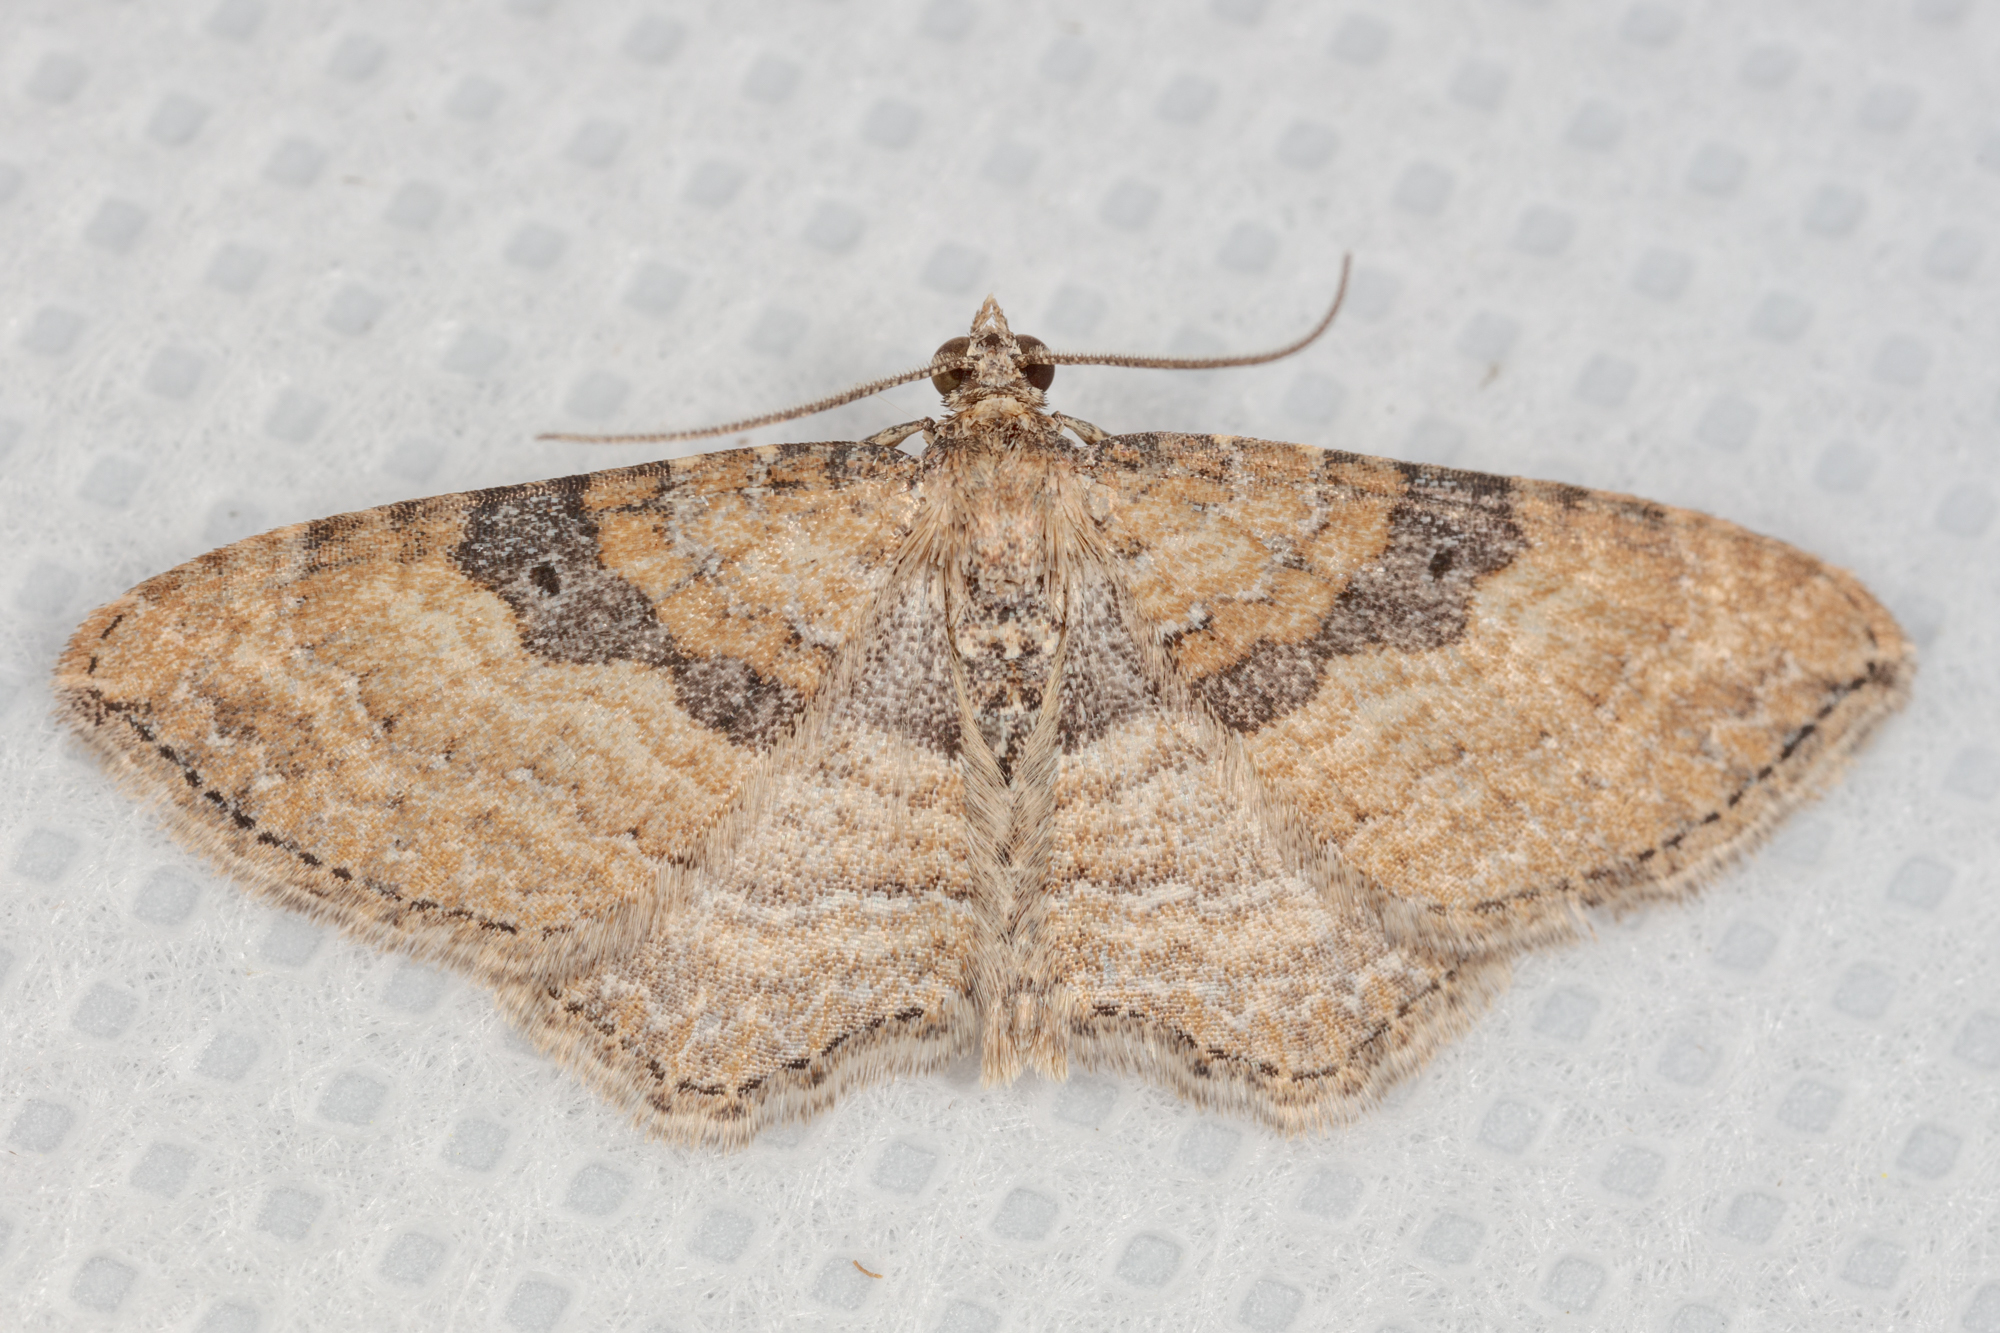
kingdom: Animalia
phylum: Arthropoda
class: Insecta
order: Lepidoptera
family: Geometridae
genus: Orthonama
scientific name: Orthonama obstipata
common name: The gem
